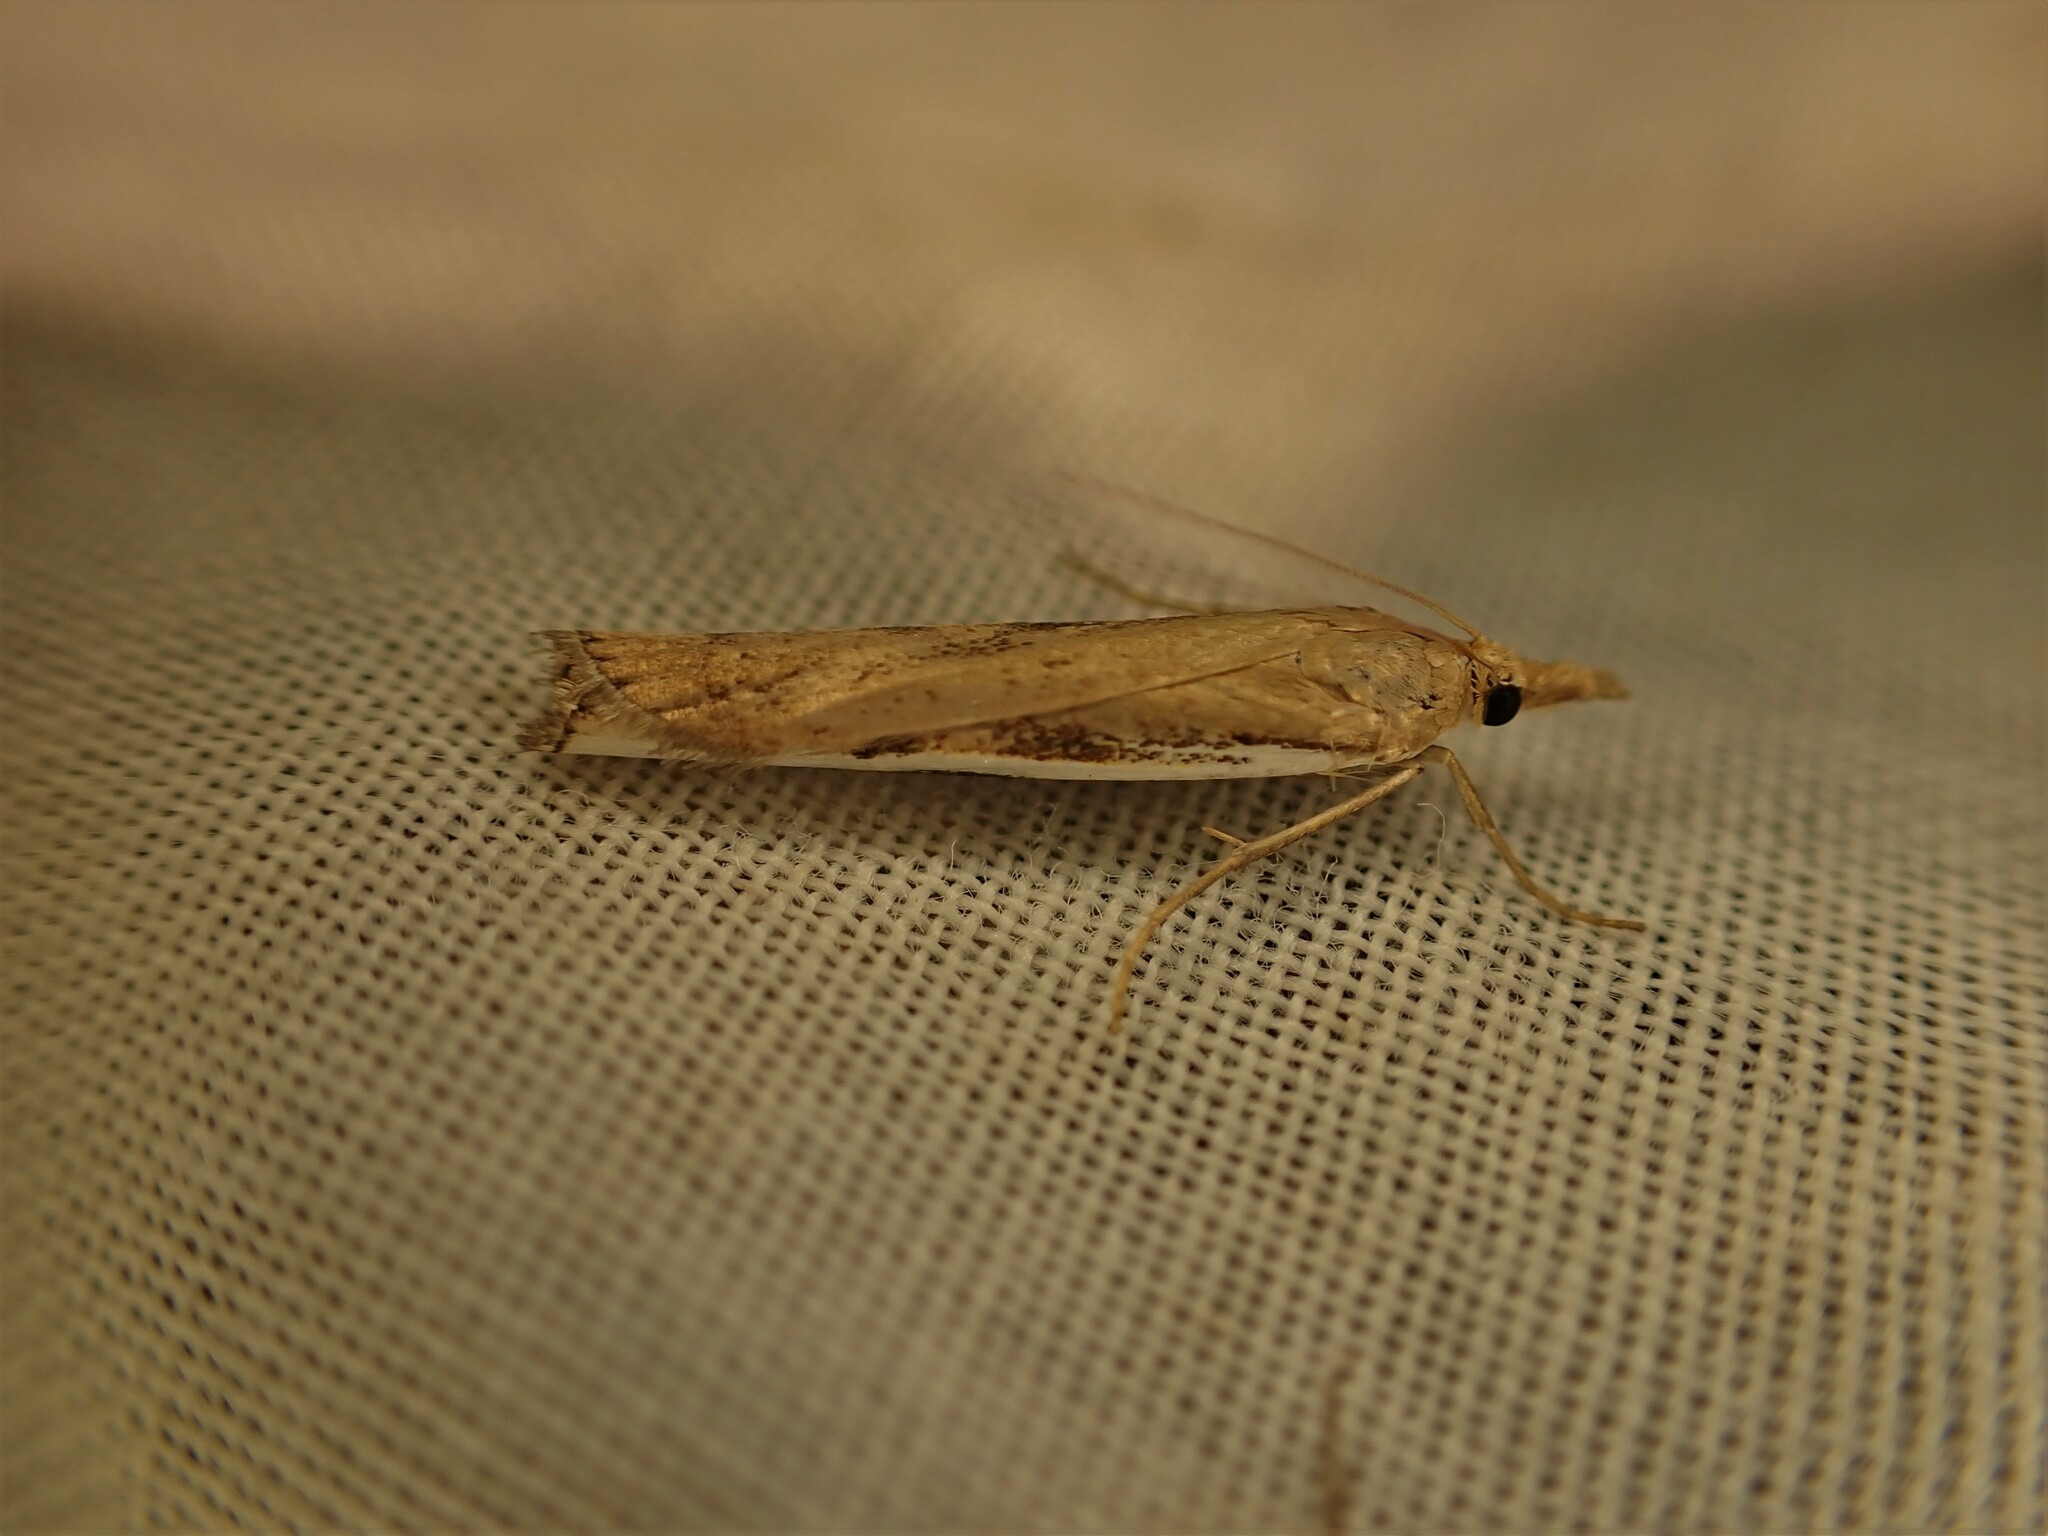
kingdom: Animalia
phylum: Arthropoda
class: Insecta
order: Lepidoptera
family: Crambidae
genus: Orocrambus
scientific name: Orocrambus flexuosellus
